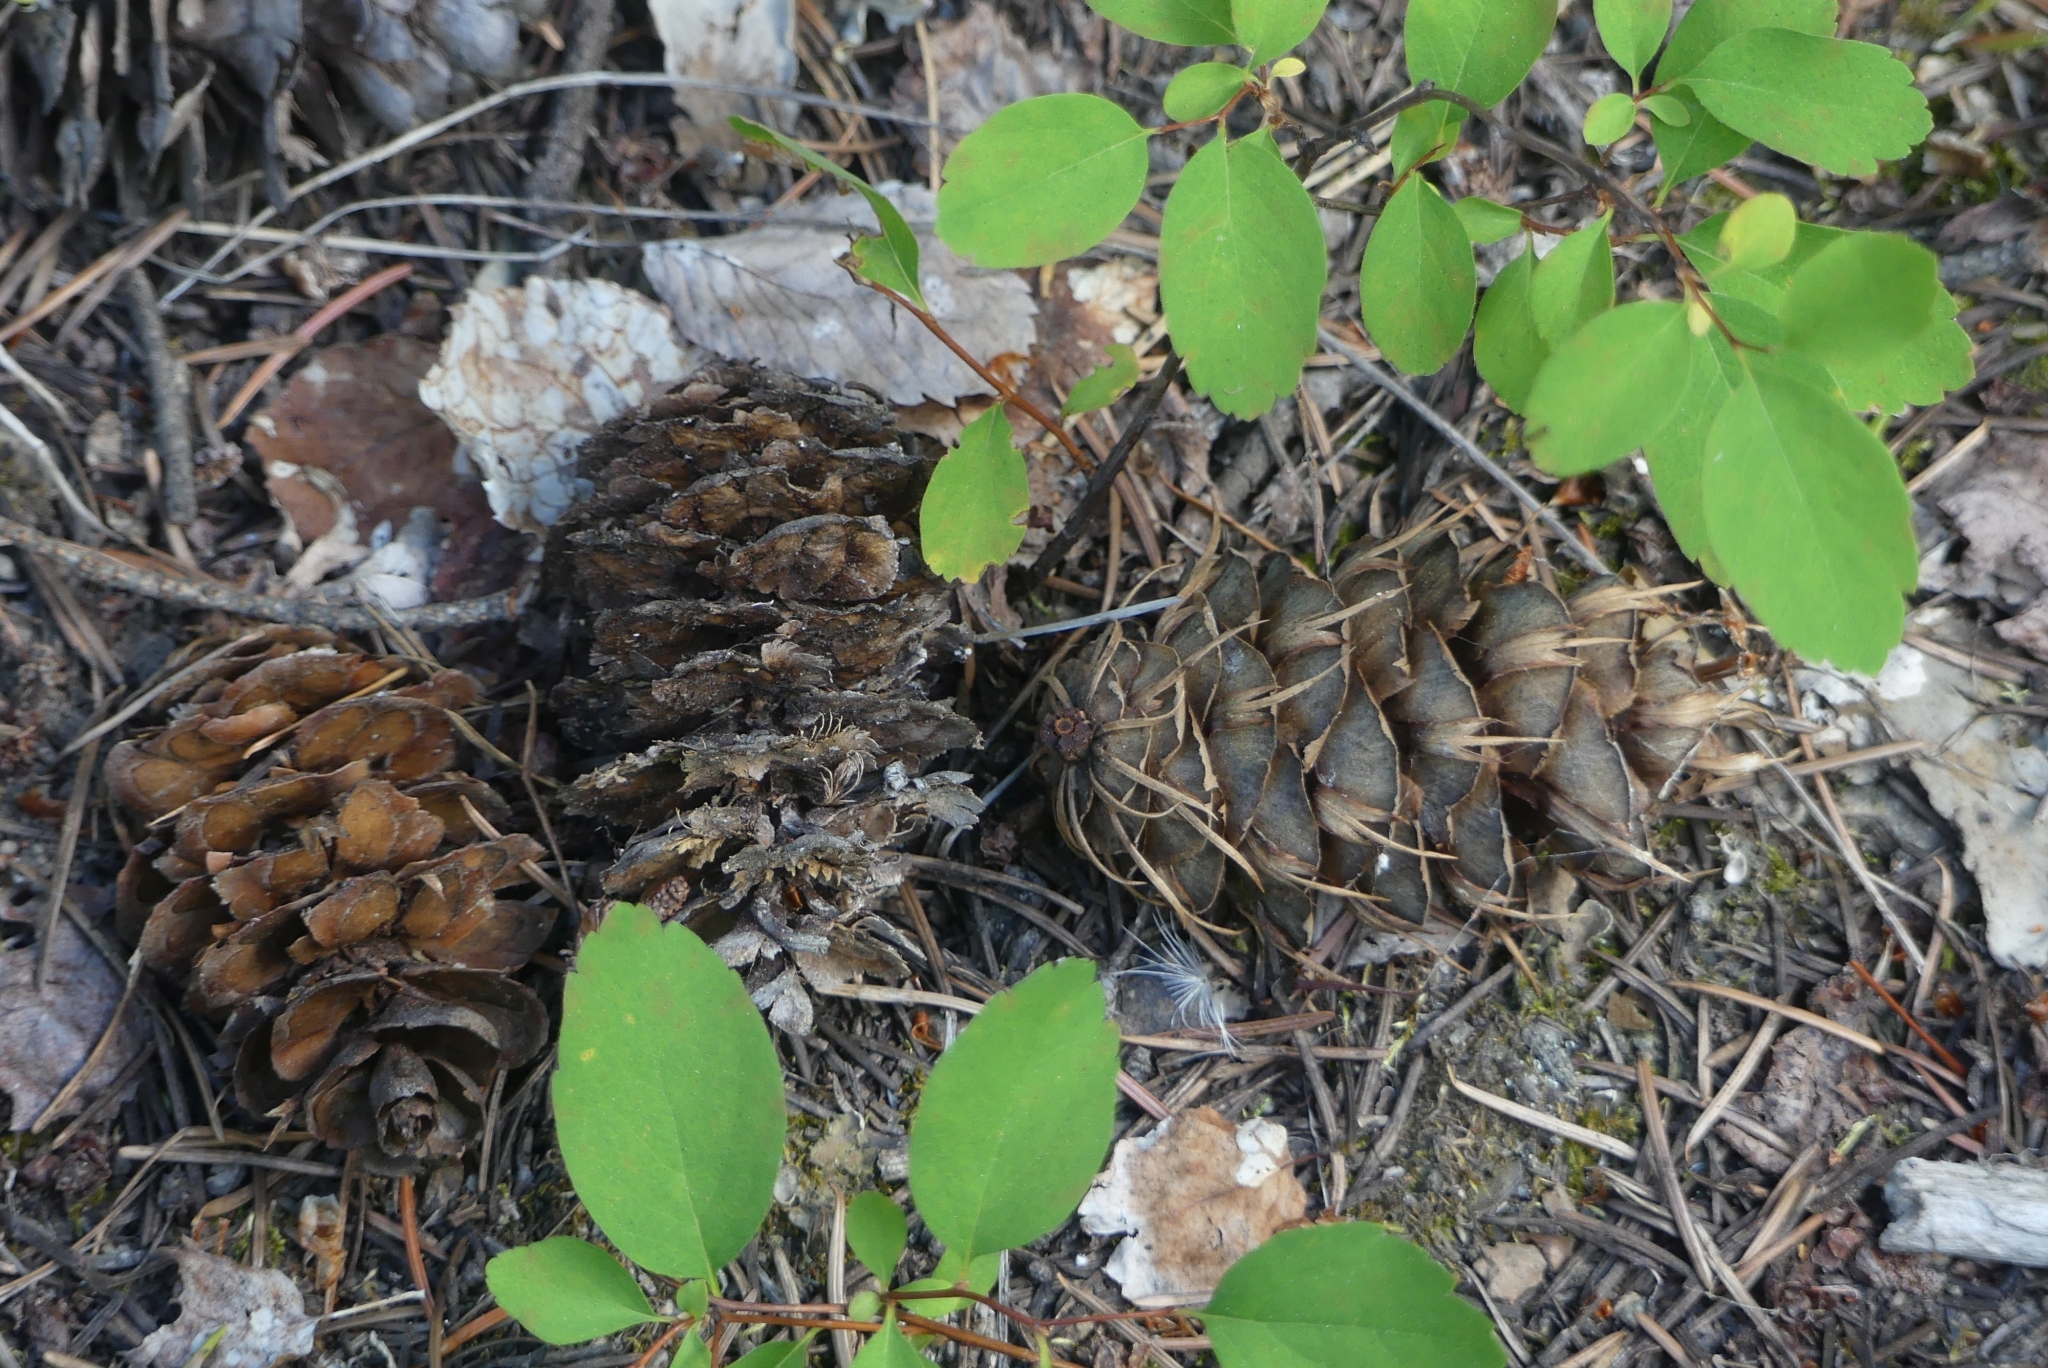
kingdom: Plantae
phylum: Tracheophyta
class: Pinopsida
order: Pinales
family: Pinaceae
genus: Pseudotsuga
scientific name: Pseudotsuga menziesii
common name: Douglas fir
